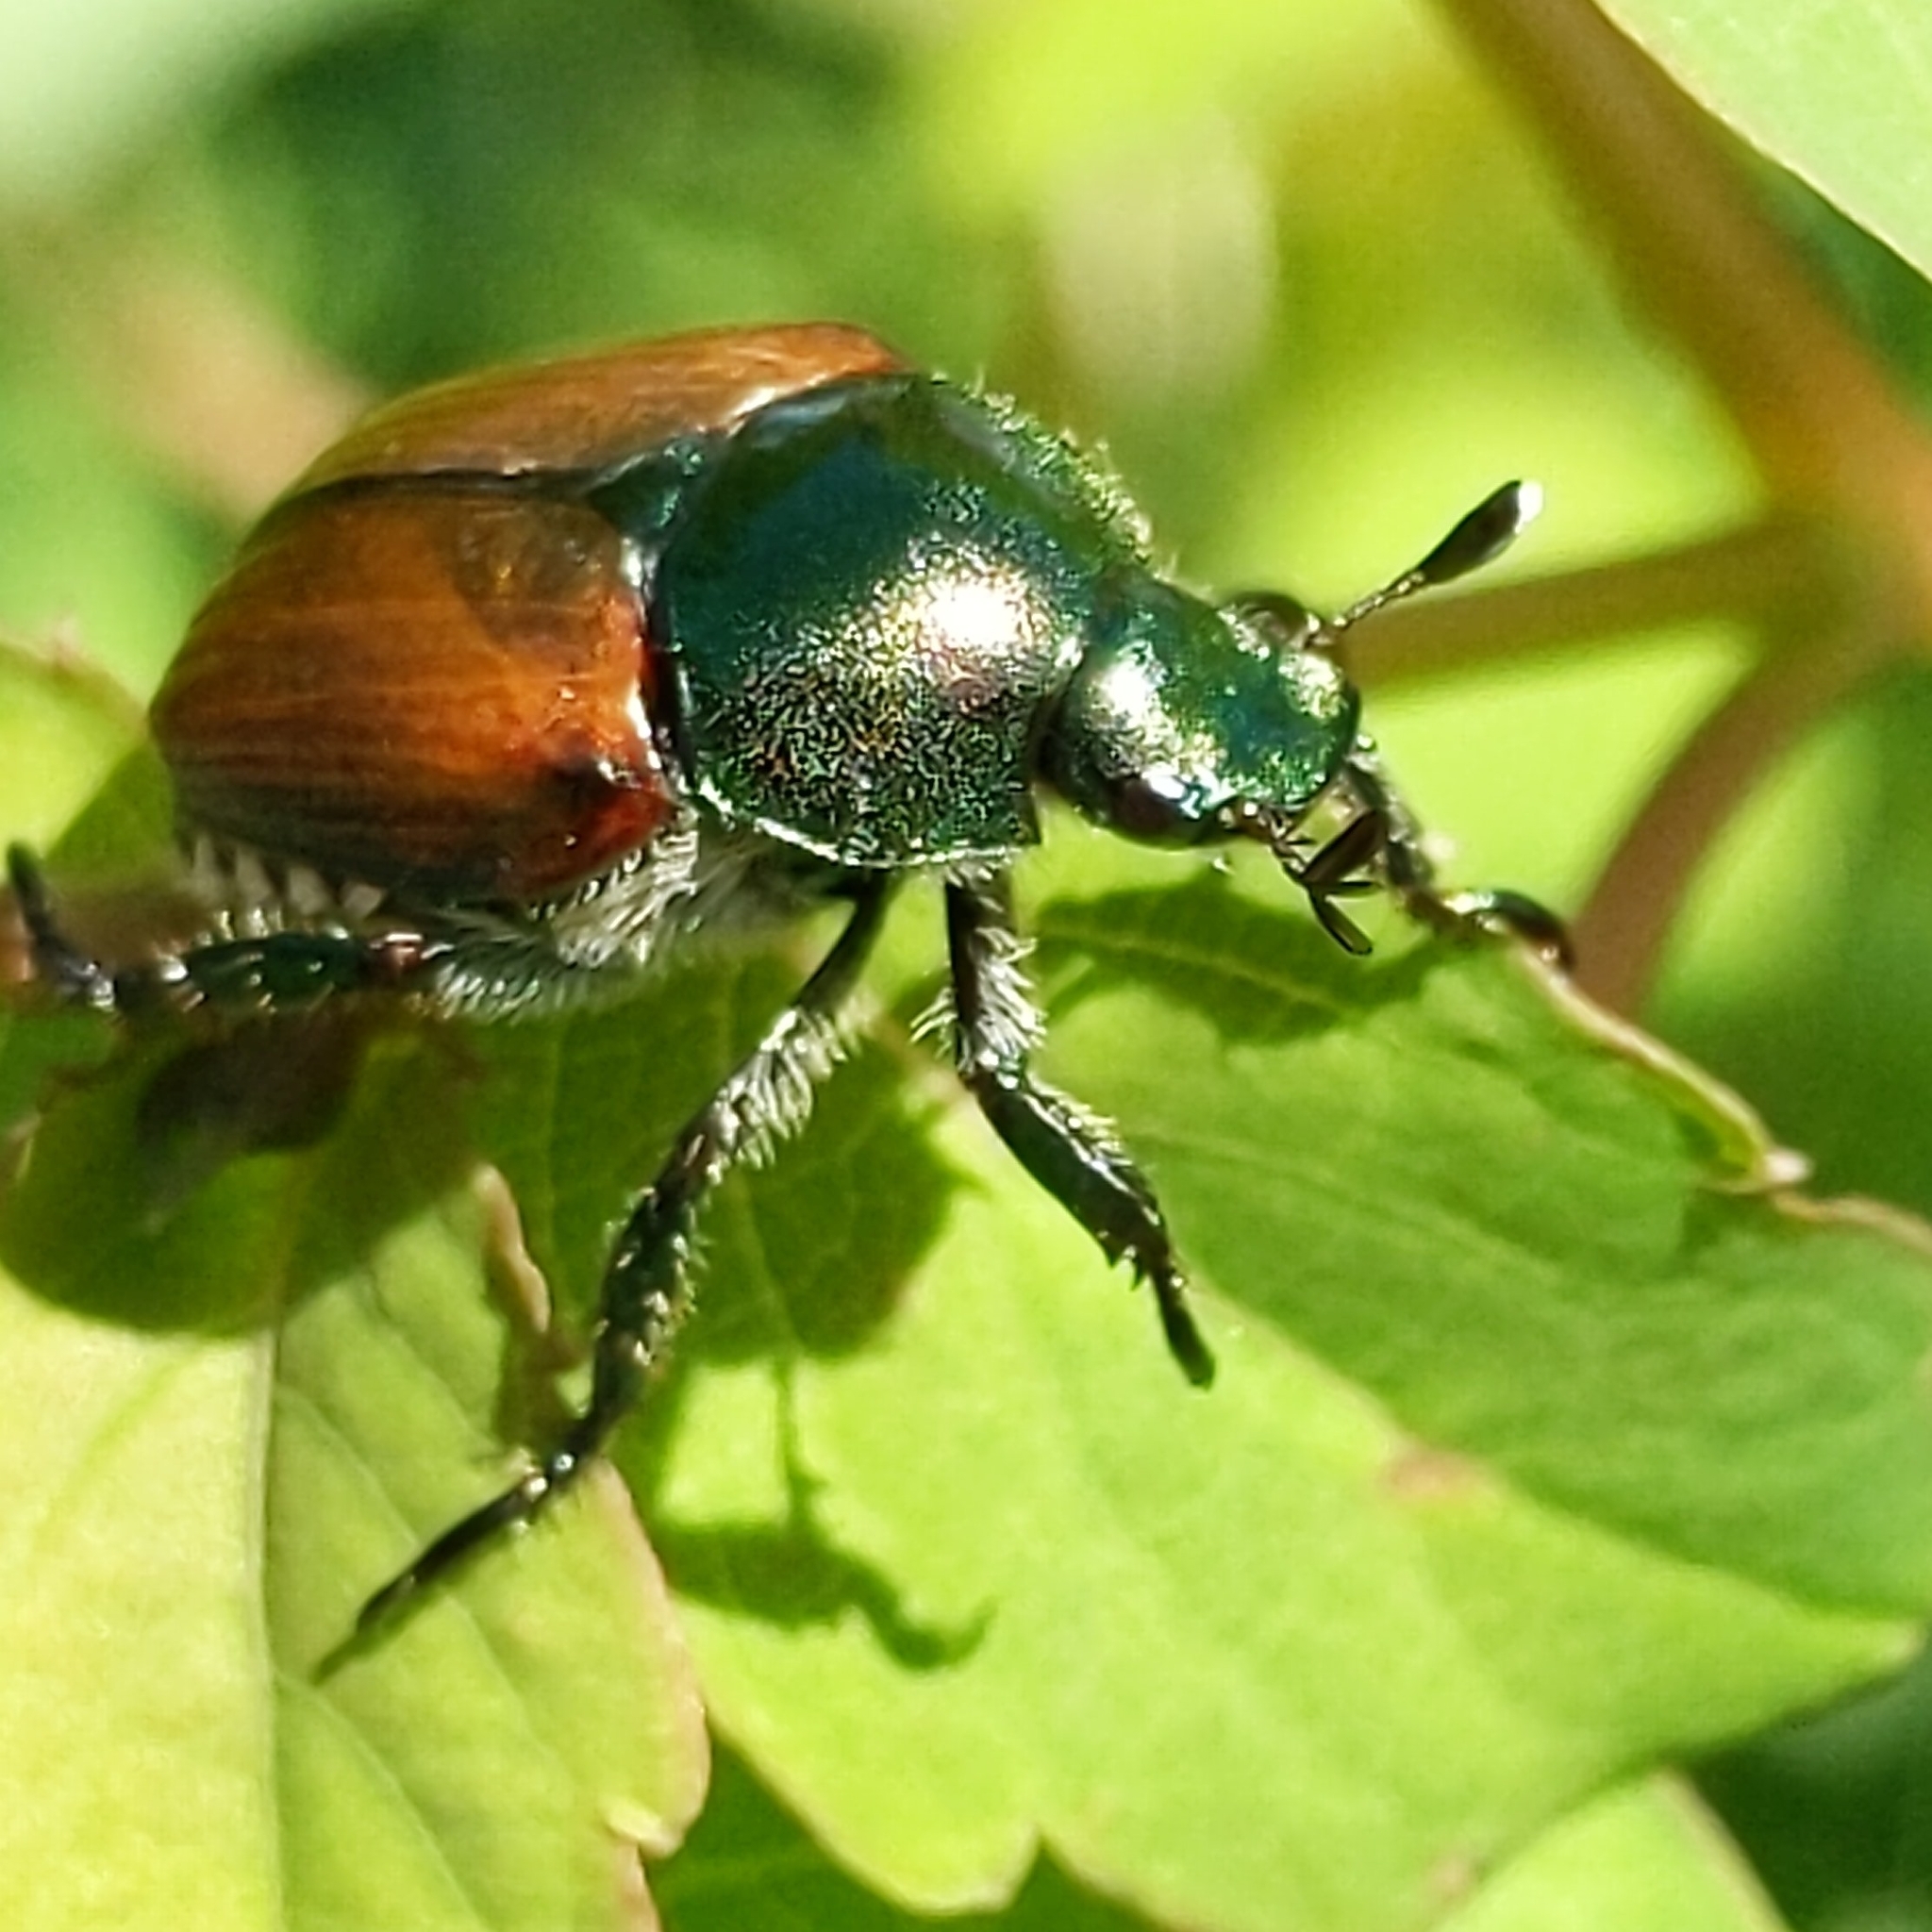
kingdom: Animalia
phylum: Arthropoda
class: Insecta
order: Coleoptera
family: Scarabaeidae
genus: Popillia
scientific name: Popillia japonica
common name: Japanese beetle
